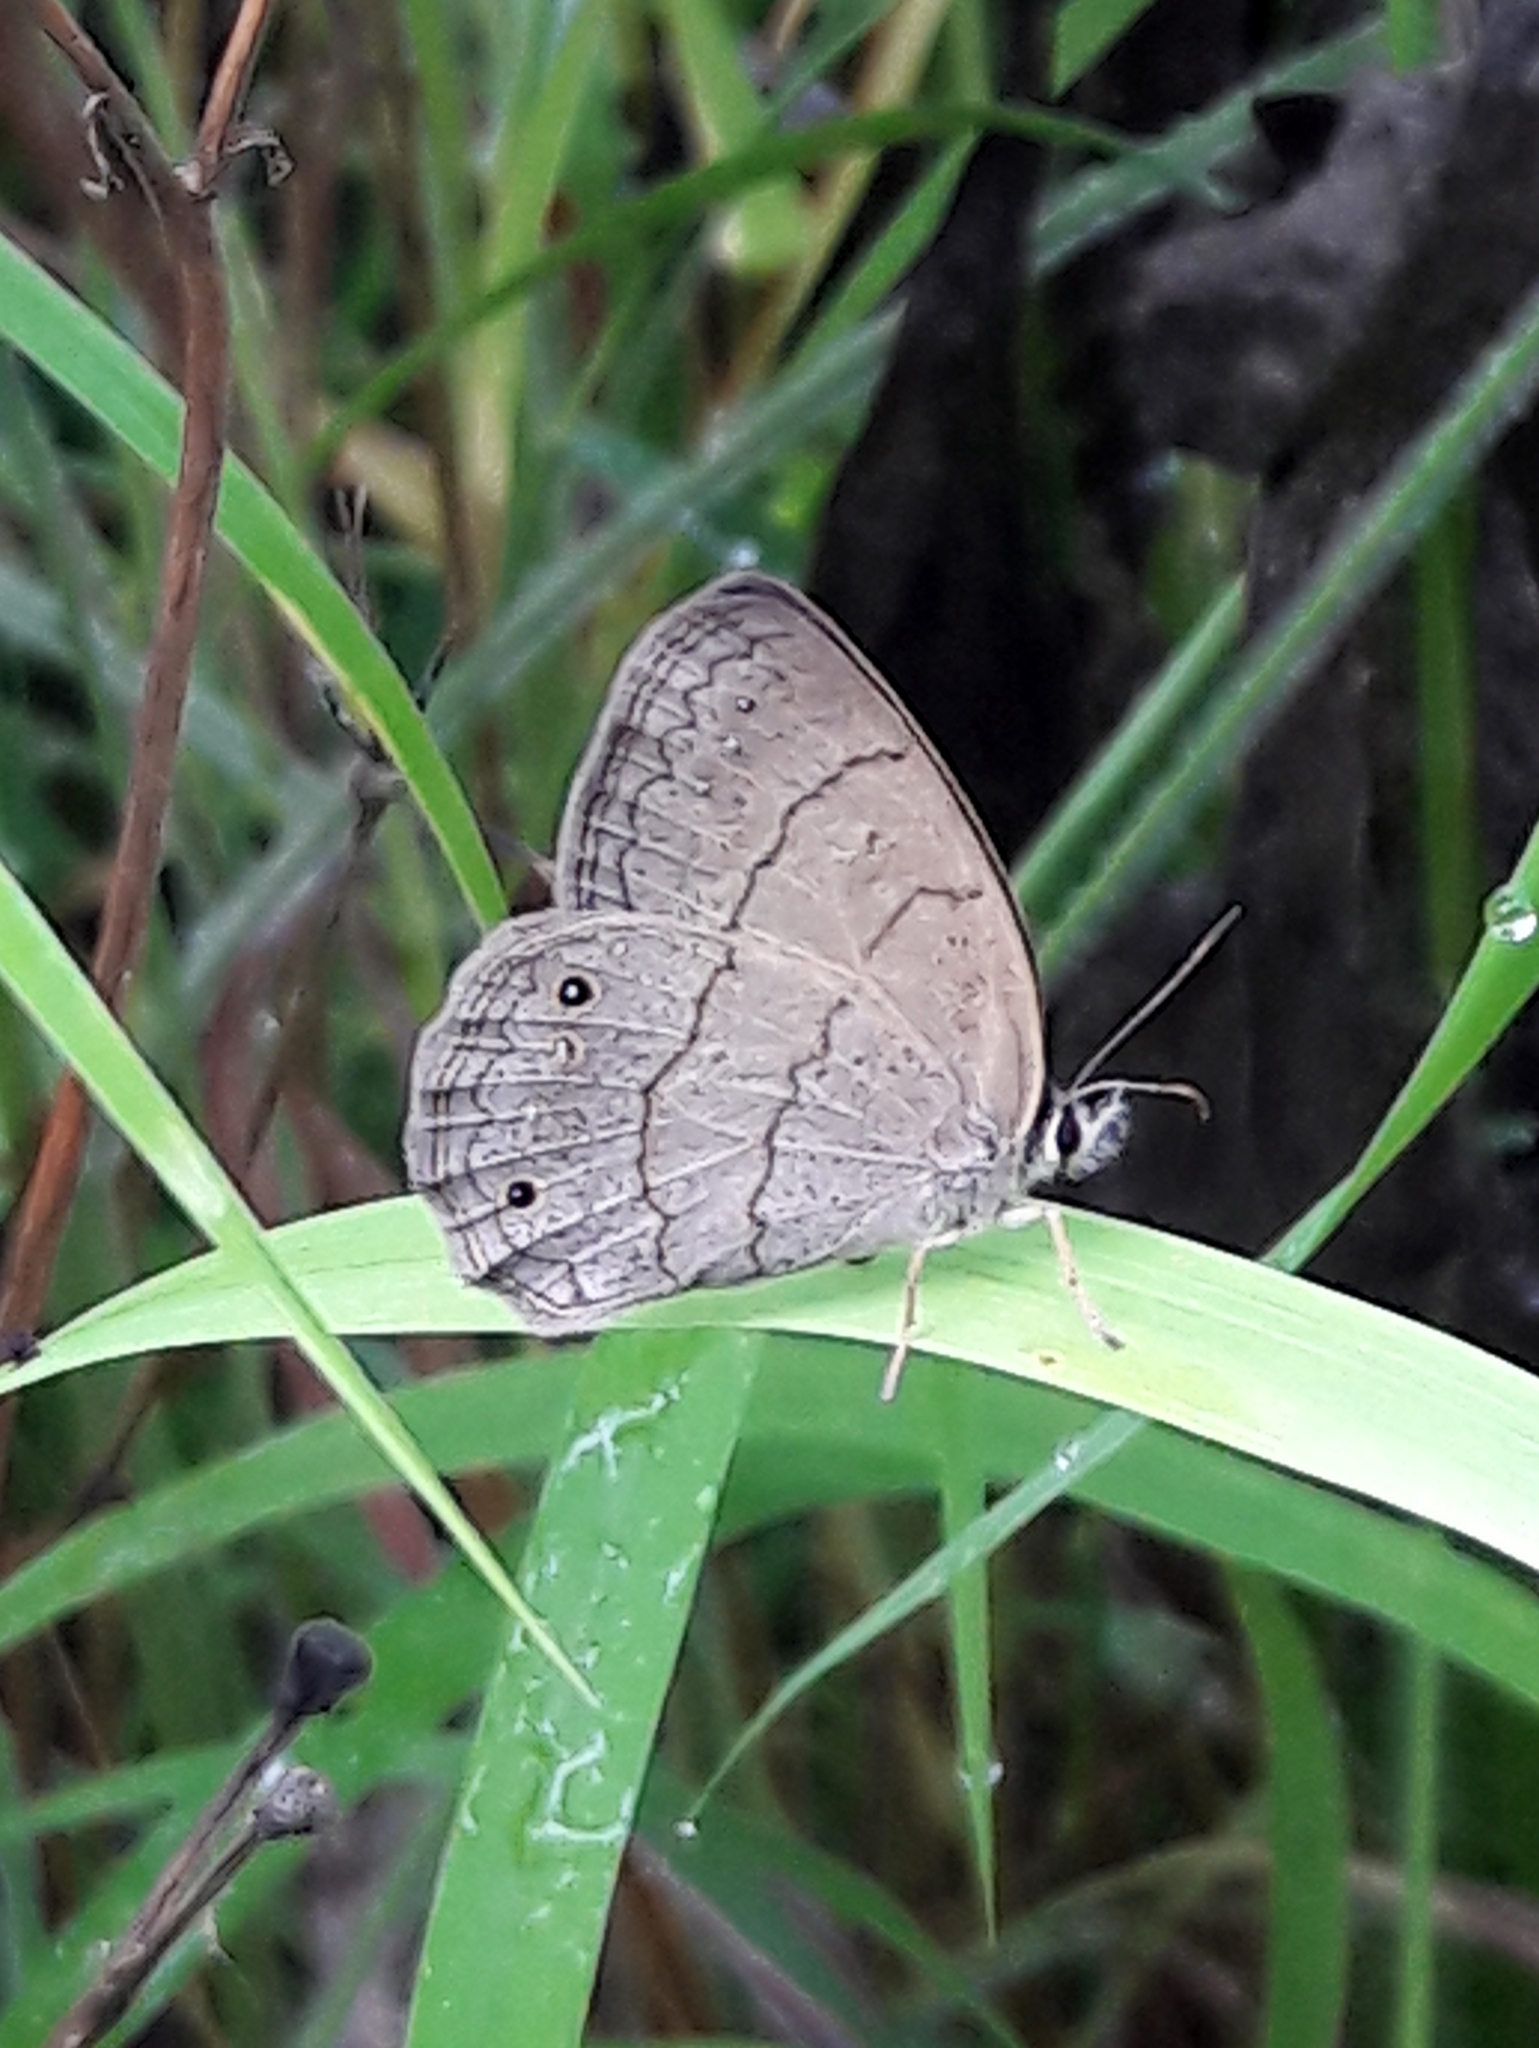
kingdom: Animalia
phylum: Arthropoda
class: Insecta
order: Lepidoptera
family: Nymphalidae
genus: Euptychia
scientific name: Euptychia Cissia eous
